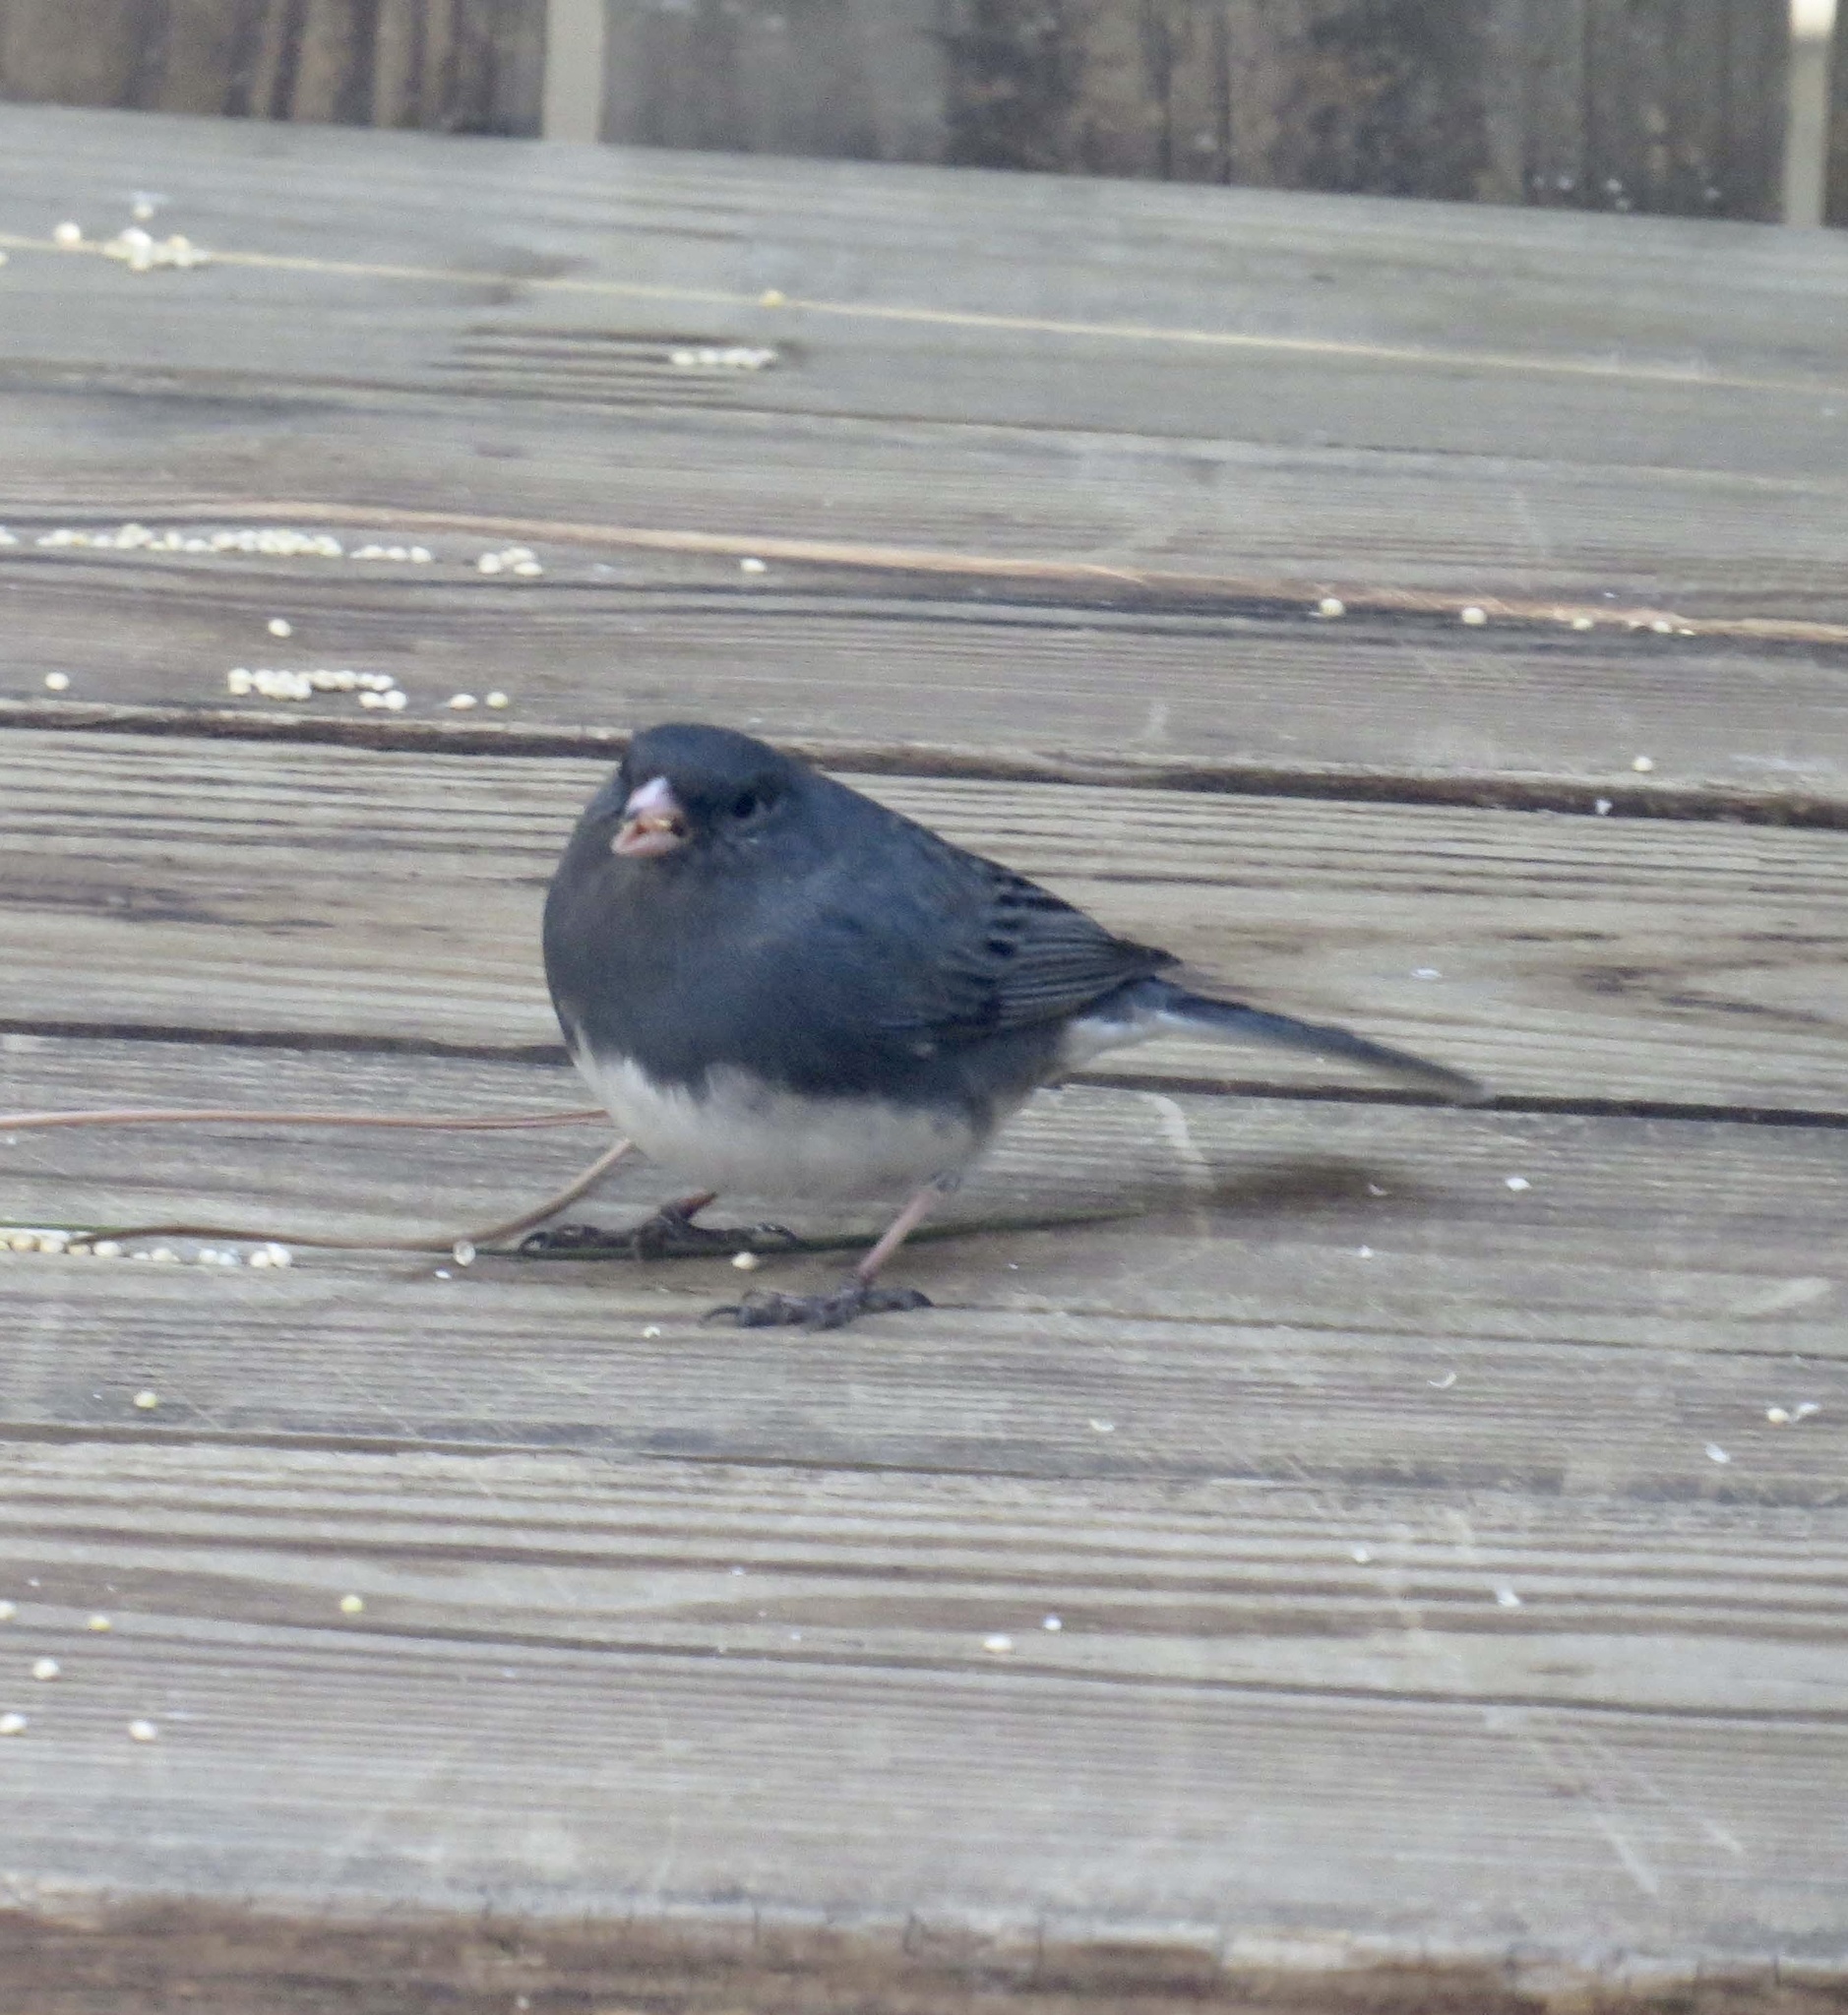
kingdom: Animalia
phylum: Chordata
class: Aves
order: Passeriformes
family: Passerellidae
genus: Junco
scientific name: Junco hyemalis
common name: Dark-eyed junco
